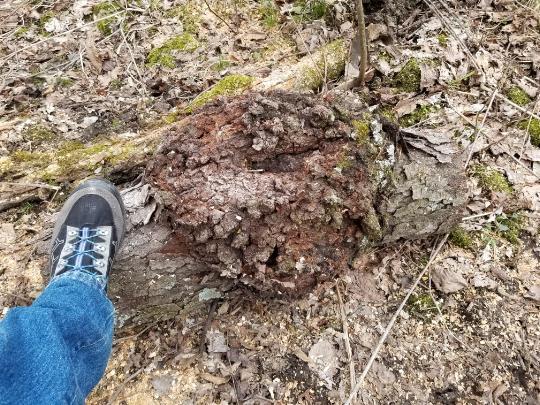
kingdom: Plantae
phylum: Tracheophyta
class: Magnoliopsida
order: Rosales
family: Rosaceae
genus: Prunus
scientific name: Prunus serotina
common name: Black cherry
